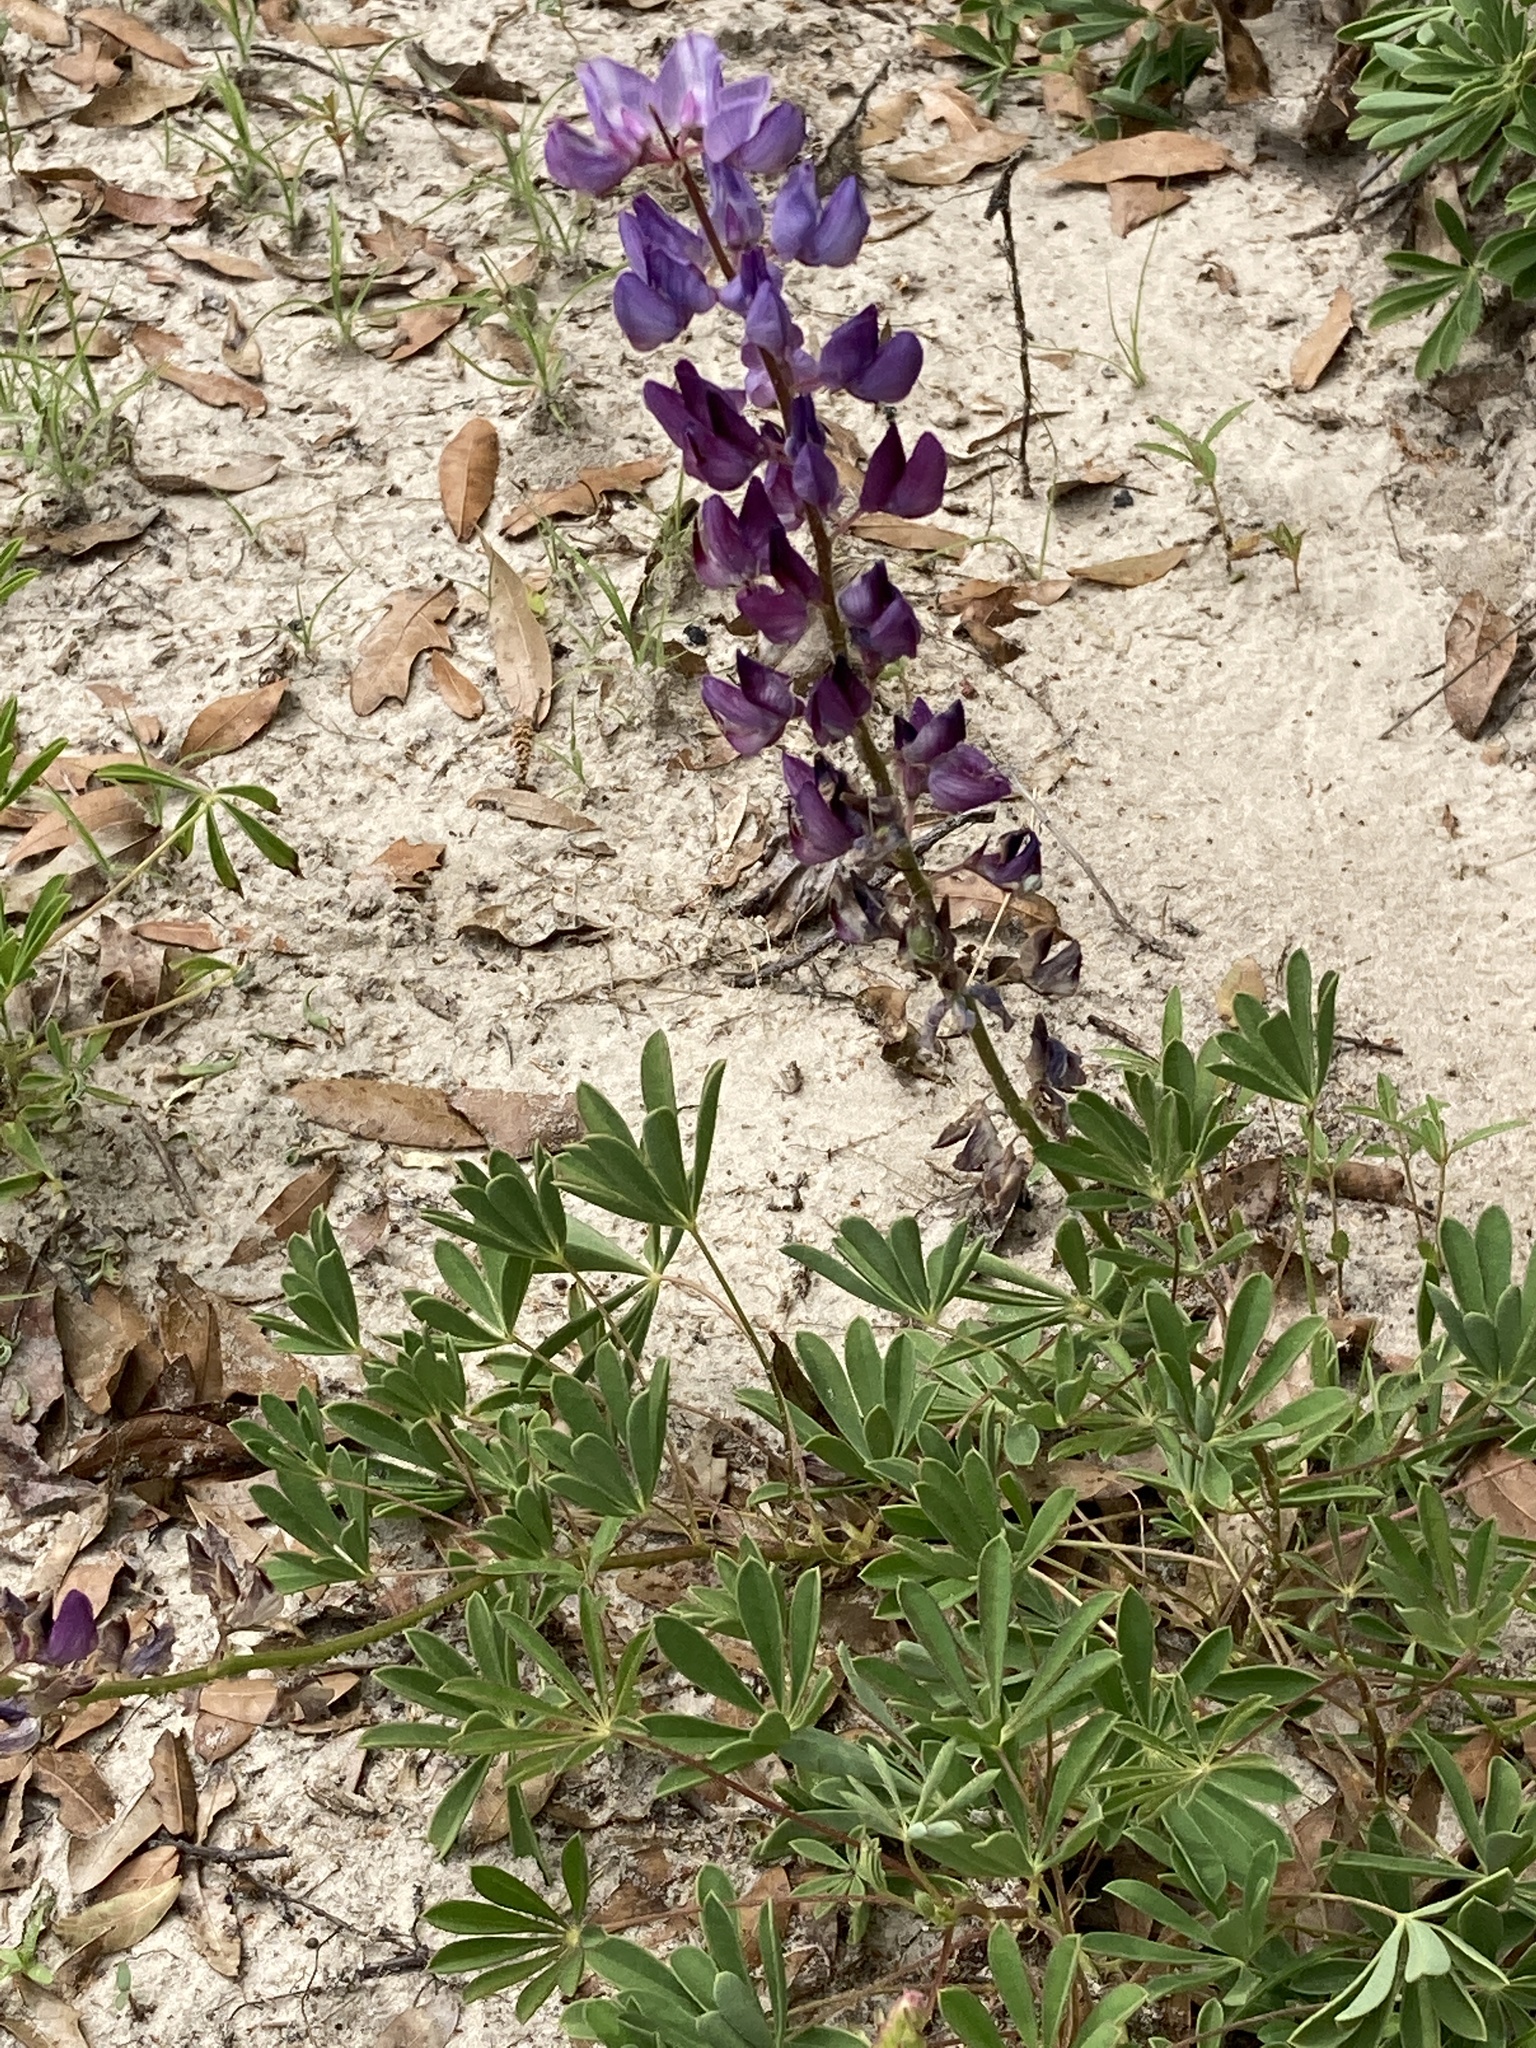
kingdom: Plantae
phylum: Tracheophyta
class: Magnoliopsida
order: Fabales
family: Fabaceae
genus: Lupinus
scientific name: Lupinus perennis
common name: Sundial lupine
